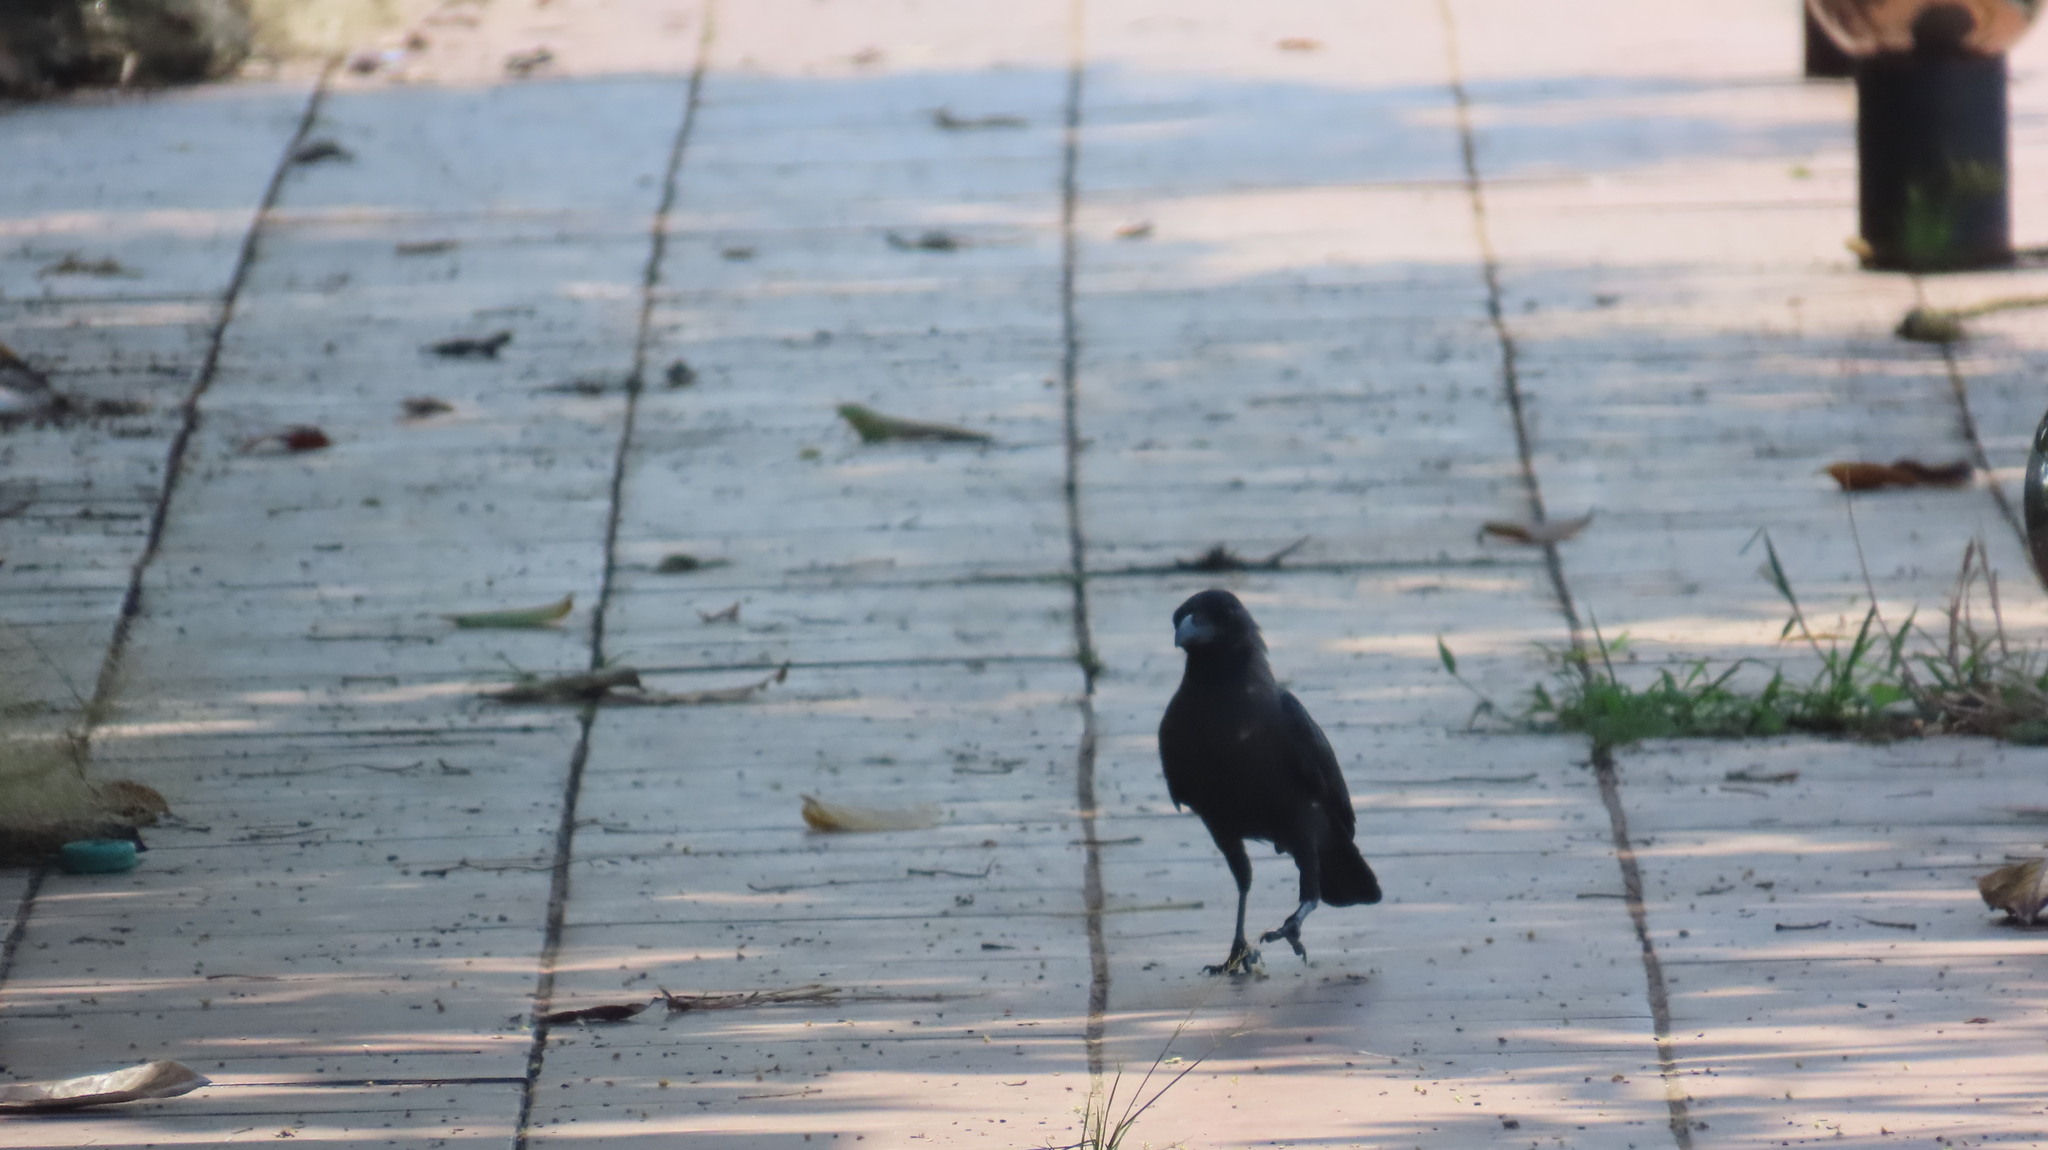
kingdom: Animalia
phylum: Chordata
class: Aves
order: Passeriformes
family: Corvidae
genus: Corvus
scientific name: Corvus splendens
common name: House crow
